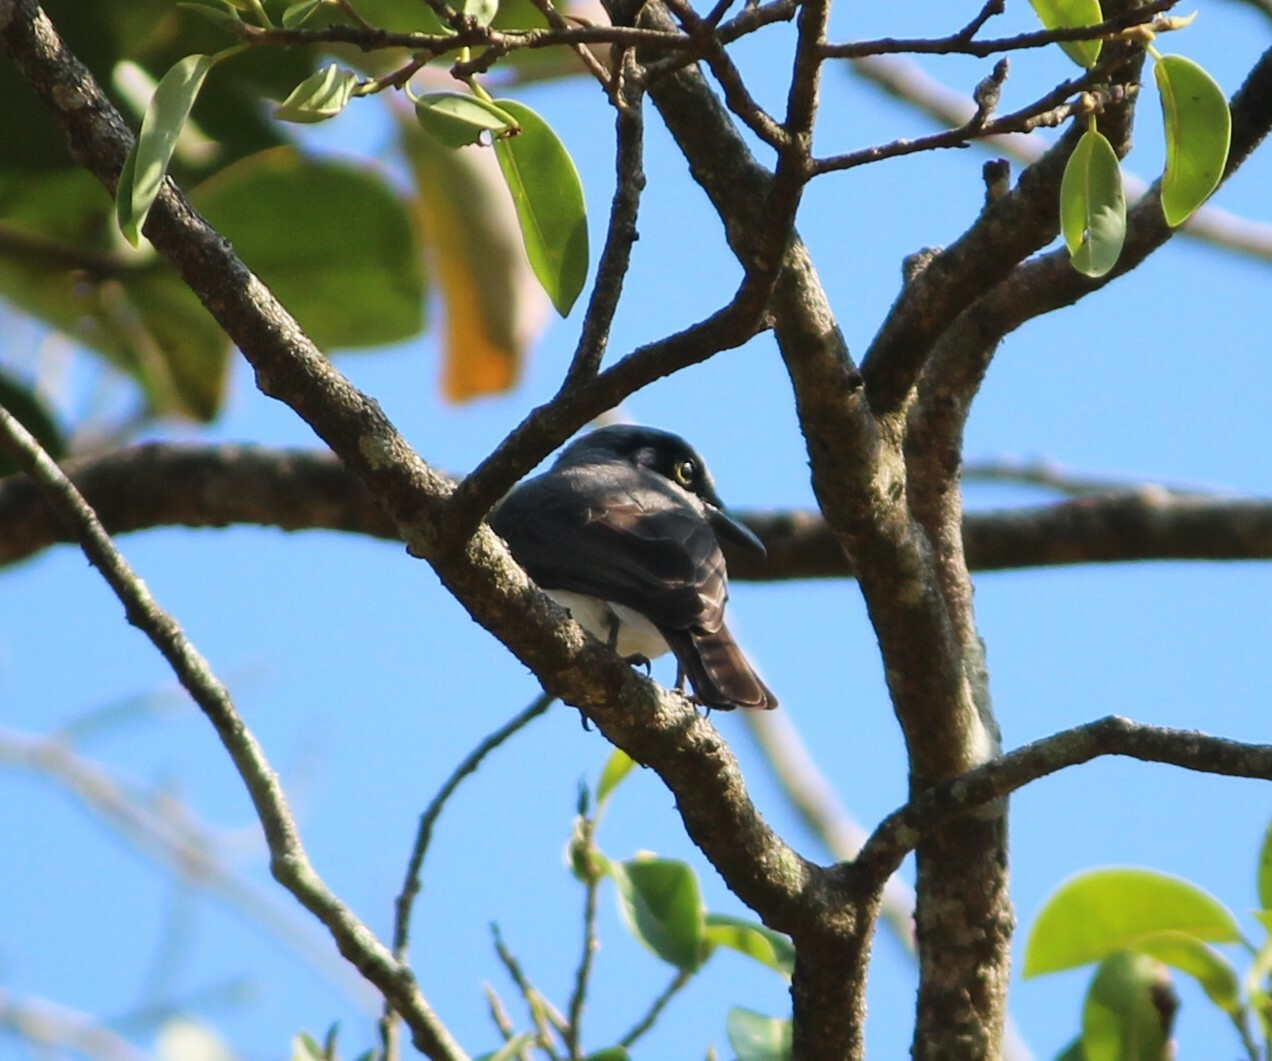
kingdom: Animalia
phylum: Chordata
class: Aves
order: Passeriformes
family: Tephrodornithidae
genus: Tephrodornis
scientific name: Tephrodornis sylvicola
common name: Malabar woodshrike
